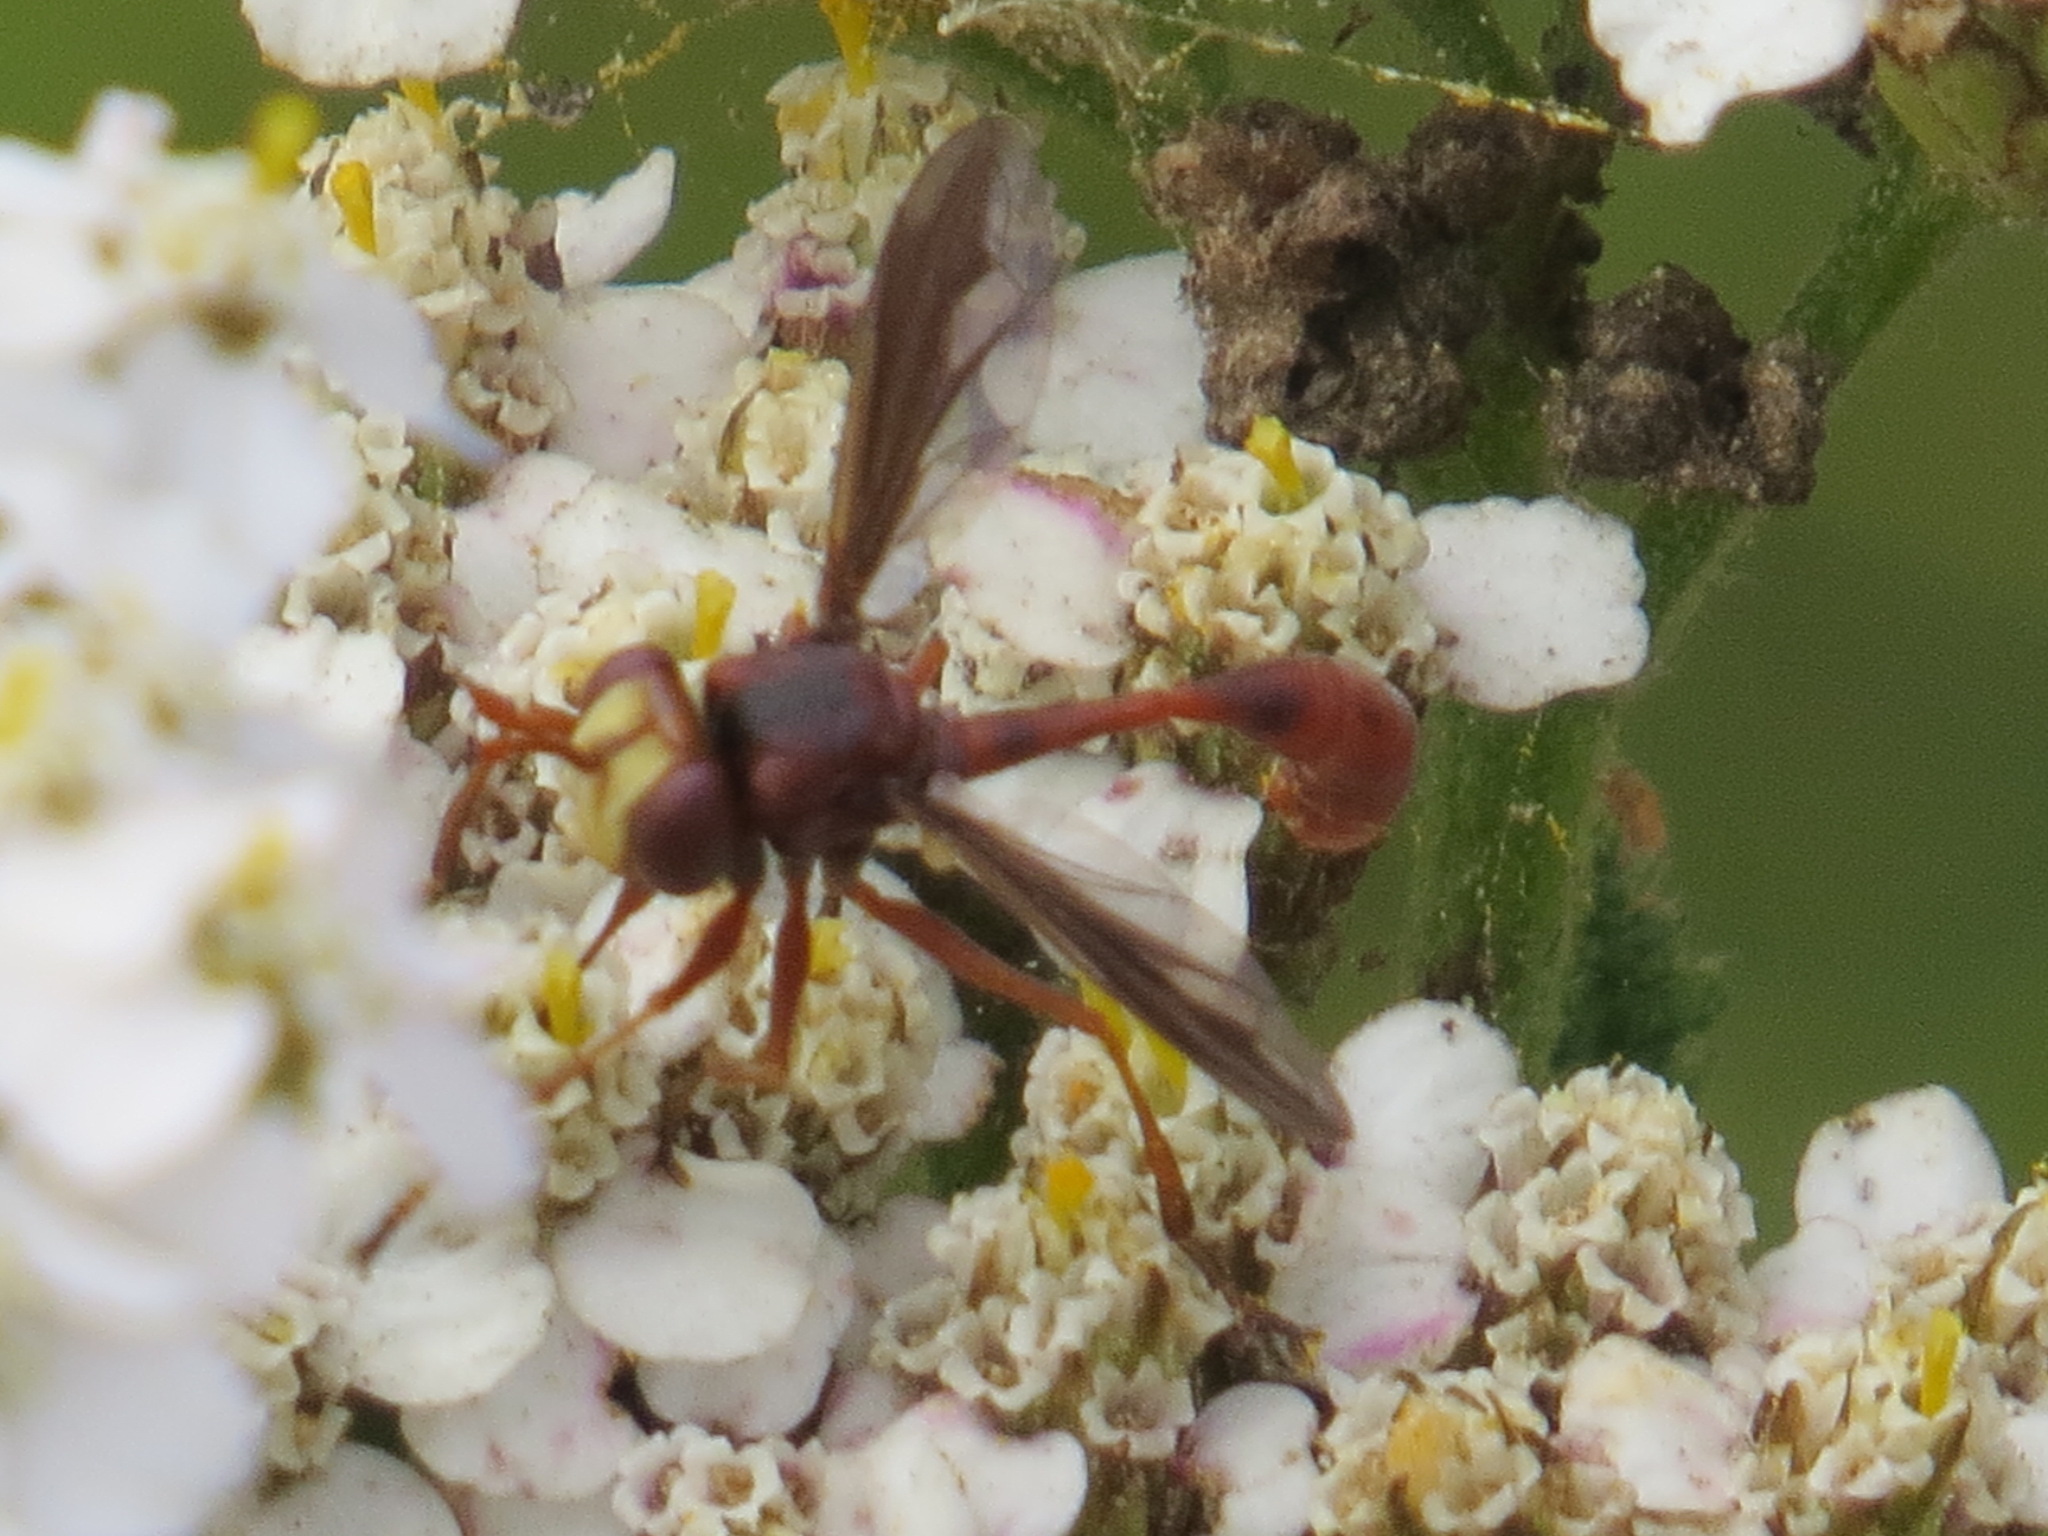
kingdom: Animalia
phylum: Arthropoda
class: Insecta
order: Diptera
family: Conopidae
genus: Physocephala
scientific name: Physocephala burgessi
